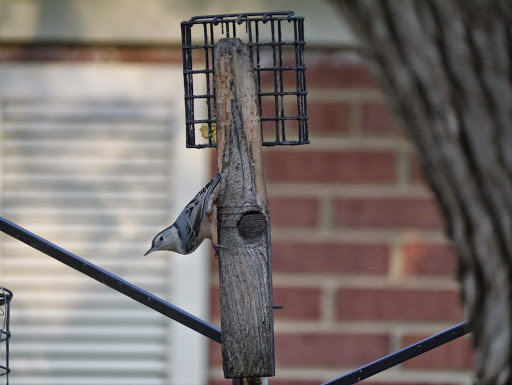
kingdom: Animalia
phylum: Chordata
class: Aves
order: Passeriformes
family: Sittidae
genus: Sitta
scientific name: Sitta carolinensis
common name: White-breasted nuthatch
